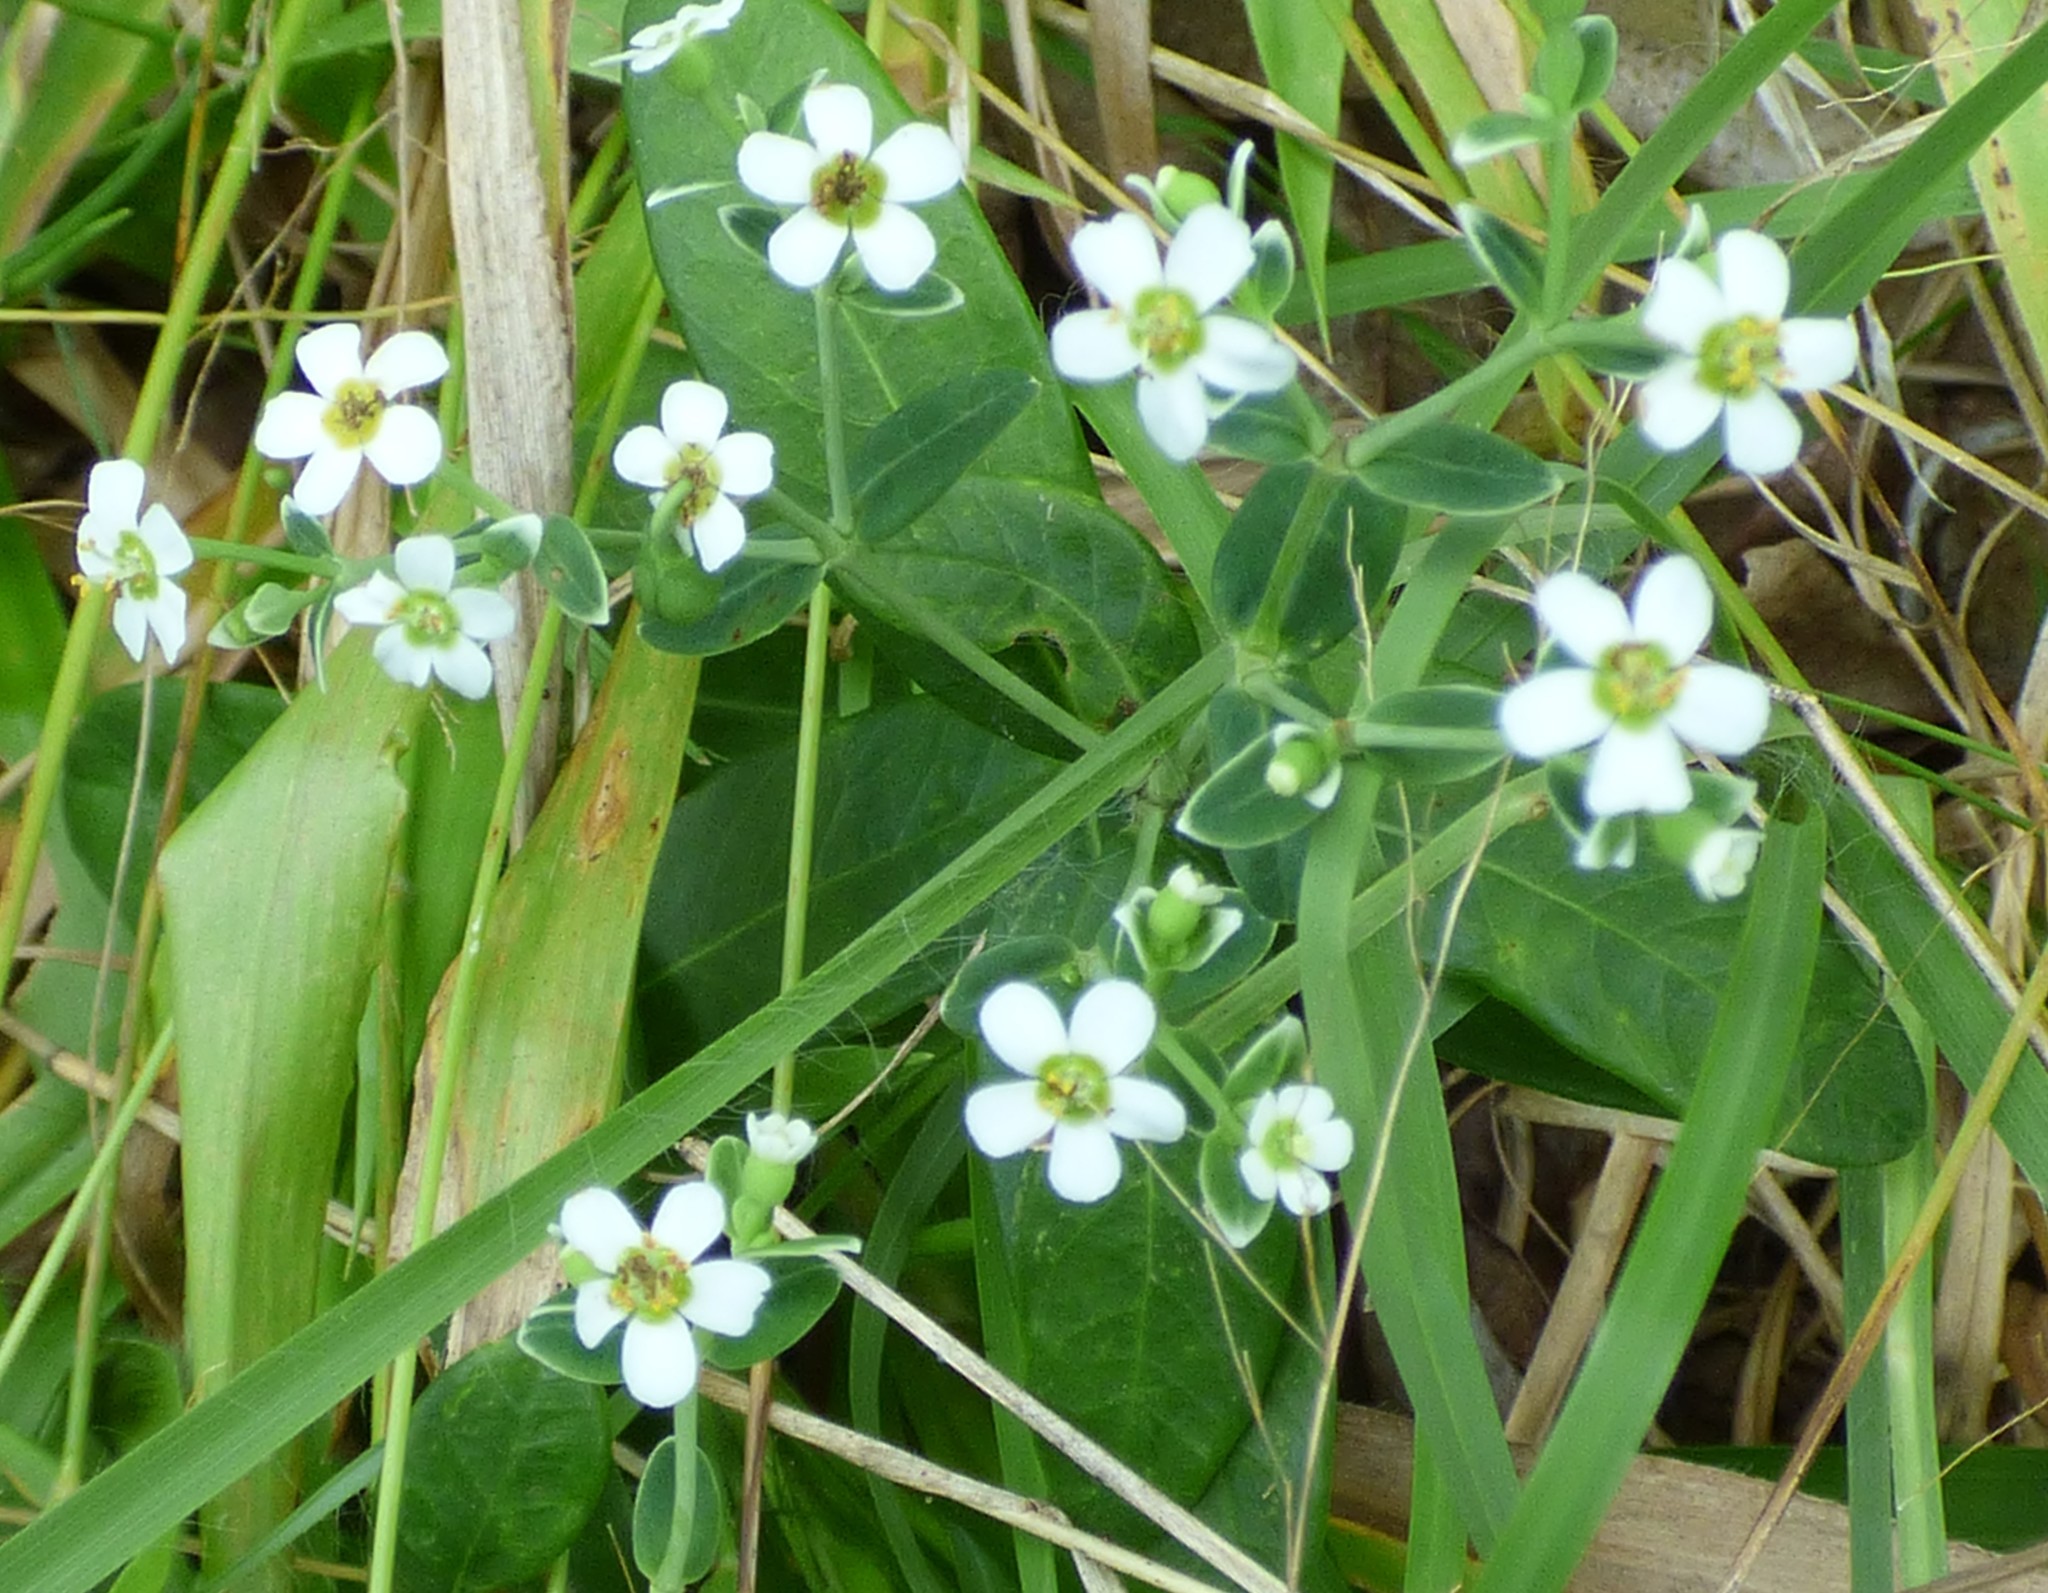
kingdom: Plantae
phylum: Tracheophyta
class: Magnoliopsida
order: Malpighiales
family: Euphorbiaceae
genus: Euphorbia
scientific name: Euphorbia corollata
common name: Flowering spurge
